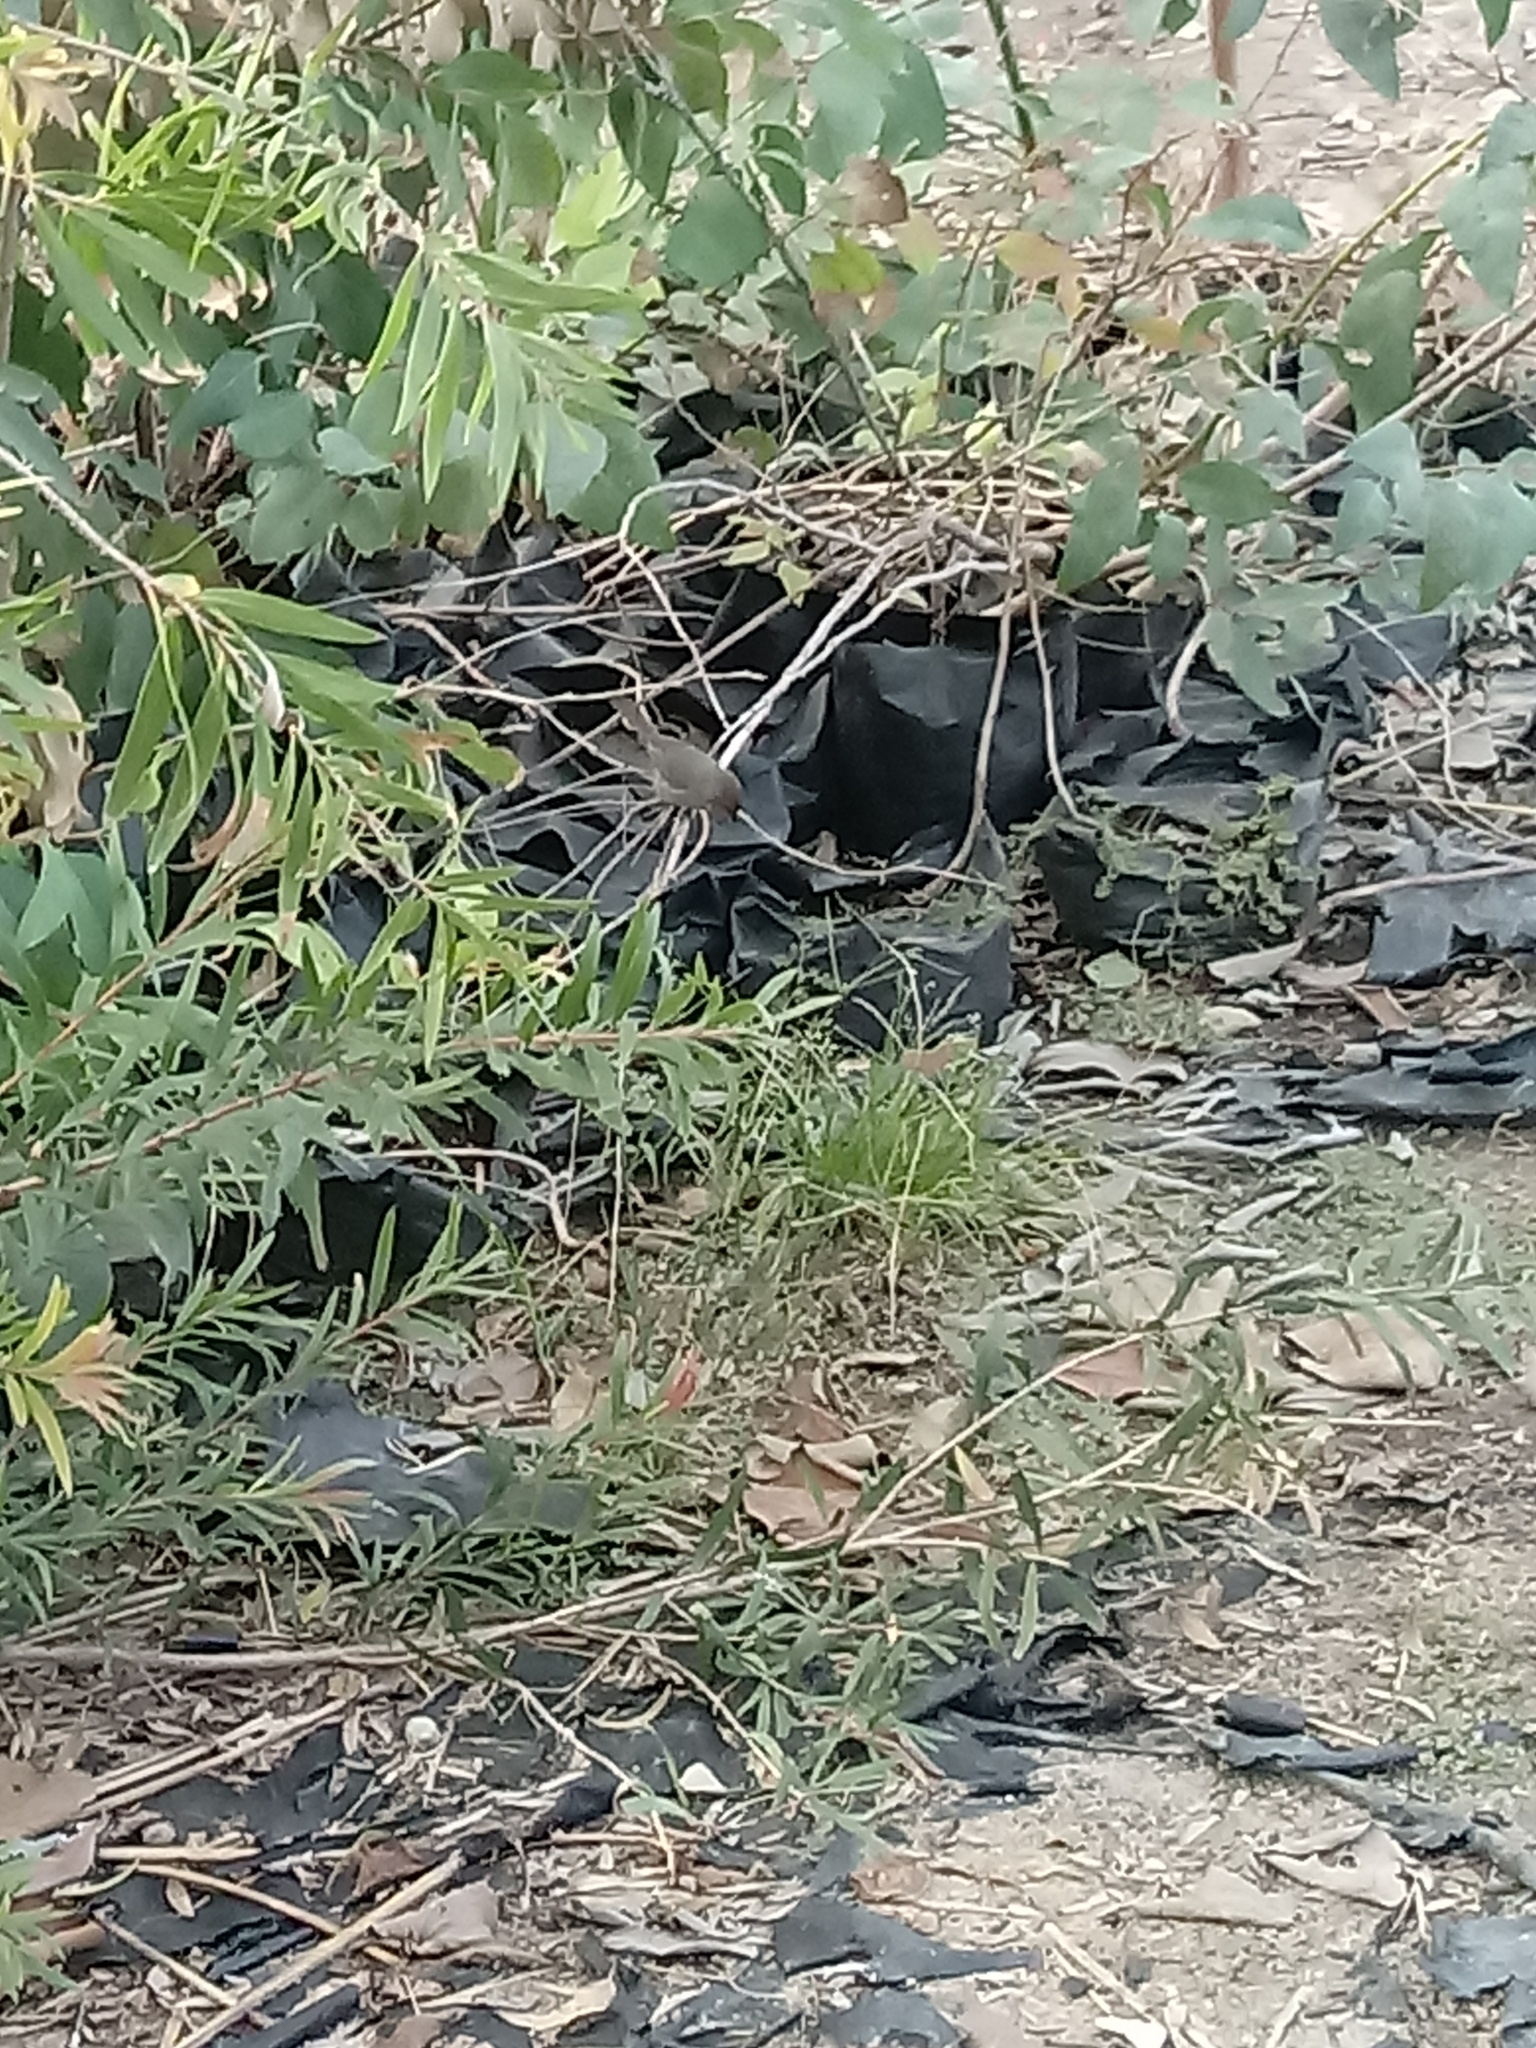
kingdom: Animalia
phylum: Chordata
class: Aves
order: Passeriformes
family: Aegithalidae
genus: Psaltriparus
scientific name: Psaltriparus minimus
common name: American bushtit
